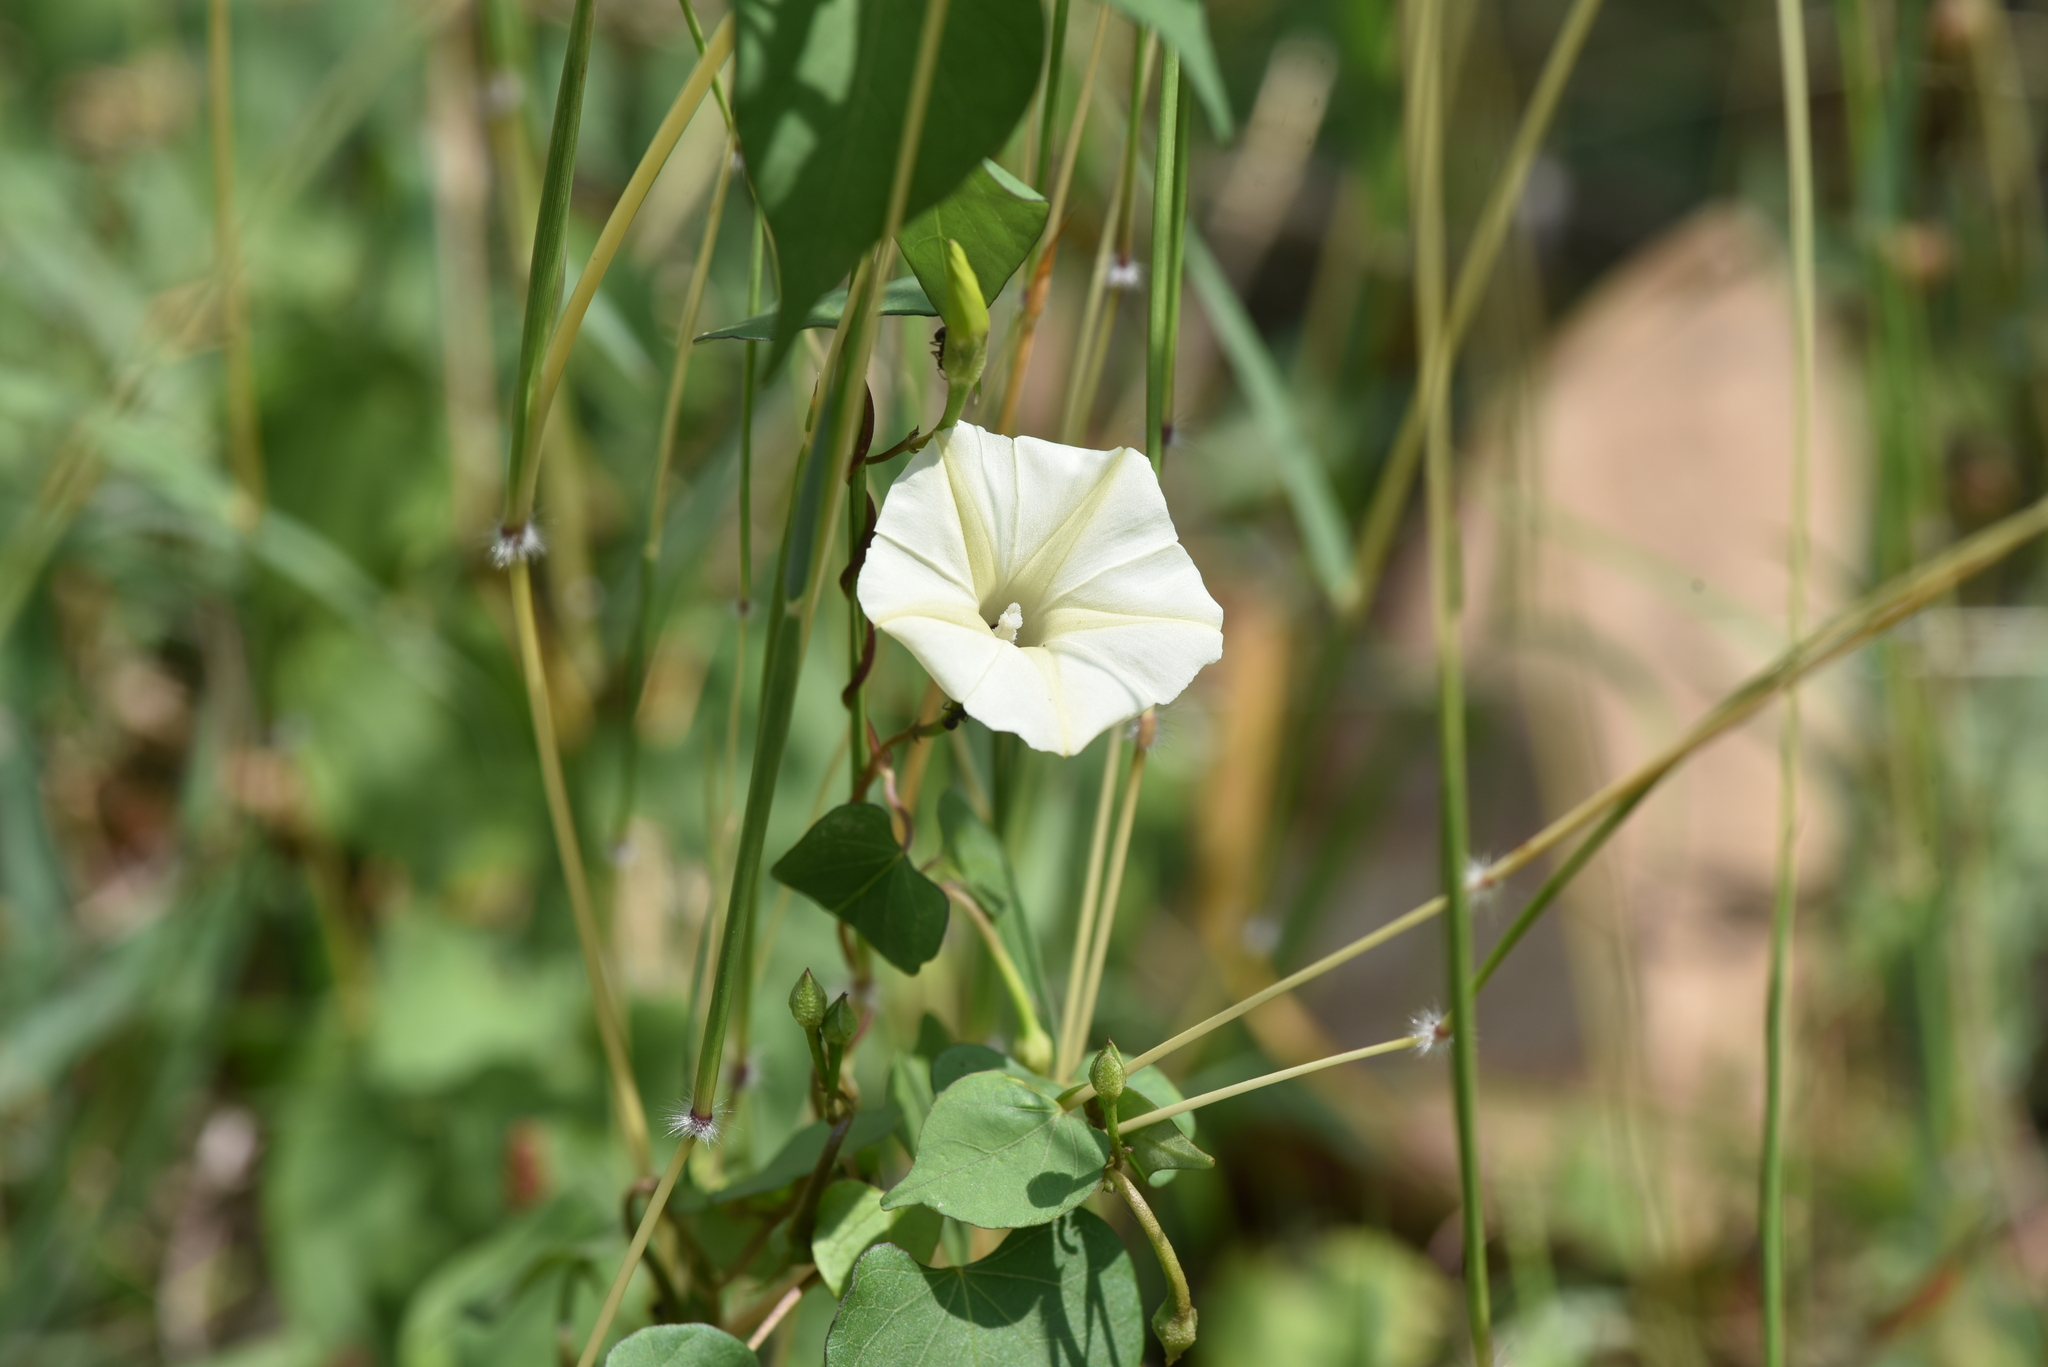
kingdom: Plantae
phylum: Tracheophyta
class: Magnoliopsida
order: Solanales
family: Convolvulaceae
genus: Ipomoea
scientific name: Ipomoea obscura
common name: Obscure morning-glory
